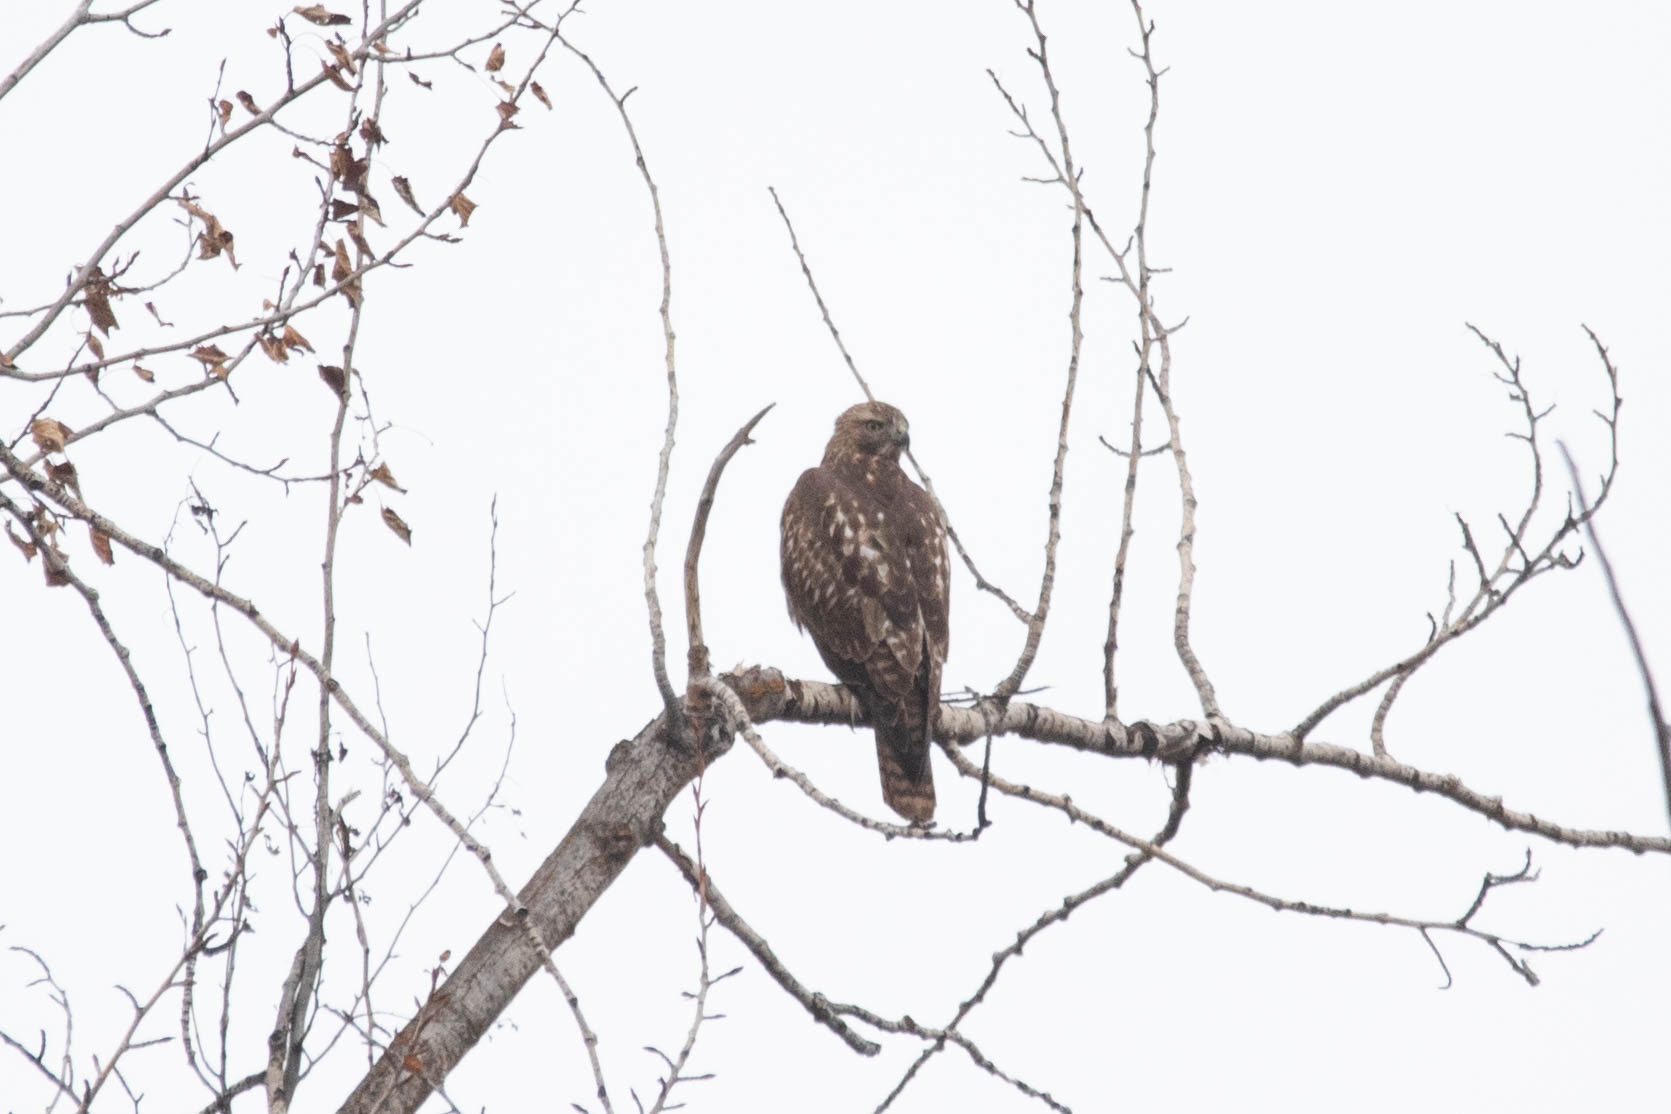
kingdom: Animalia
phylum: Chordata
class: Aves
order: Accipitriformes
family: Accipitridae
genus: Buteo
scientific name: Buteo jamaicensis
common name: Red-tailed hawk
